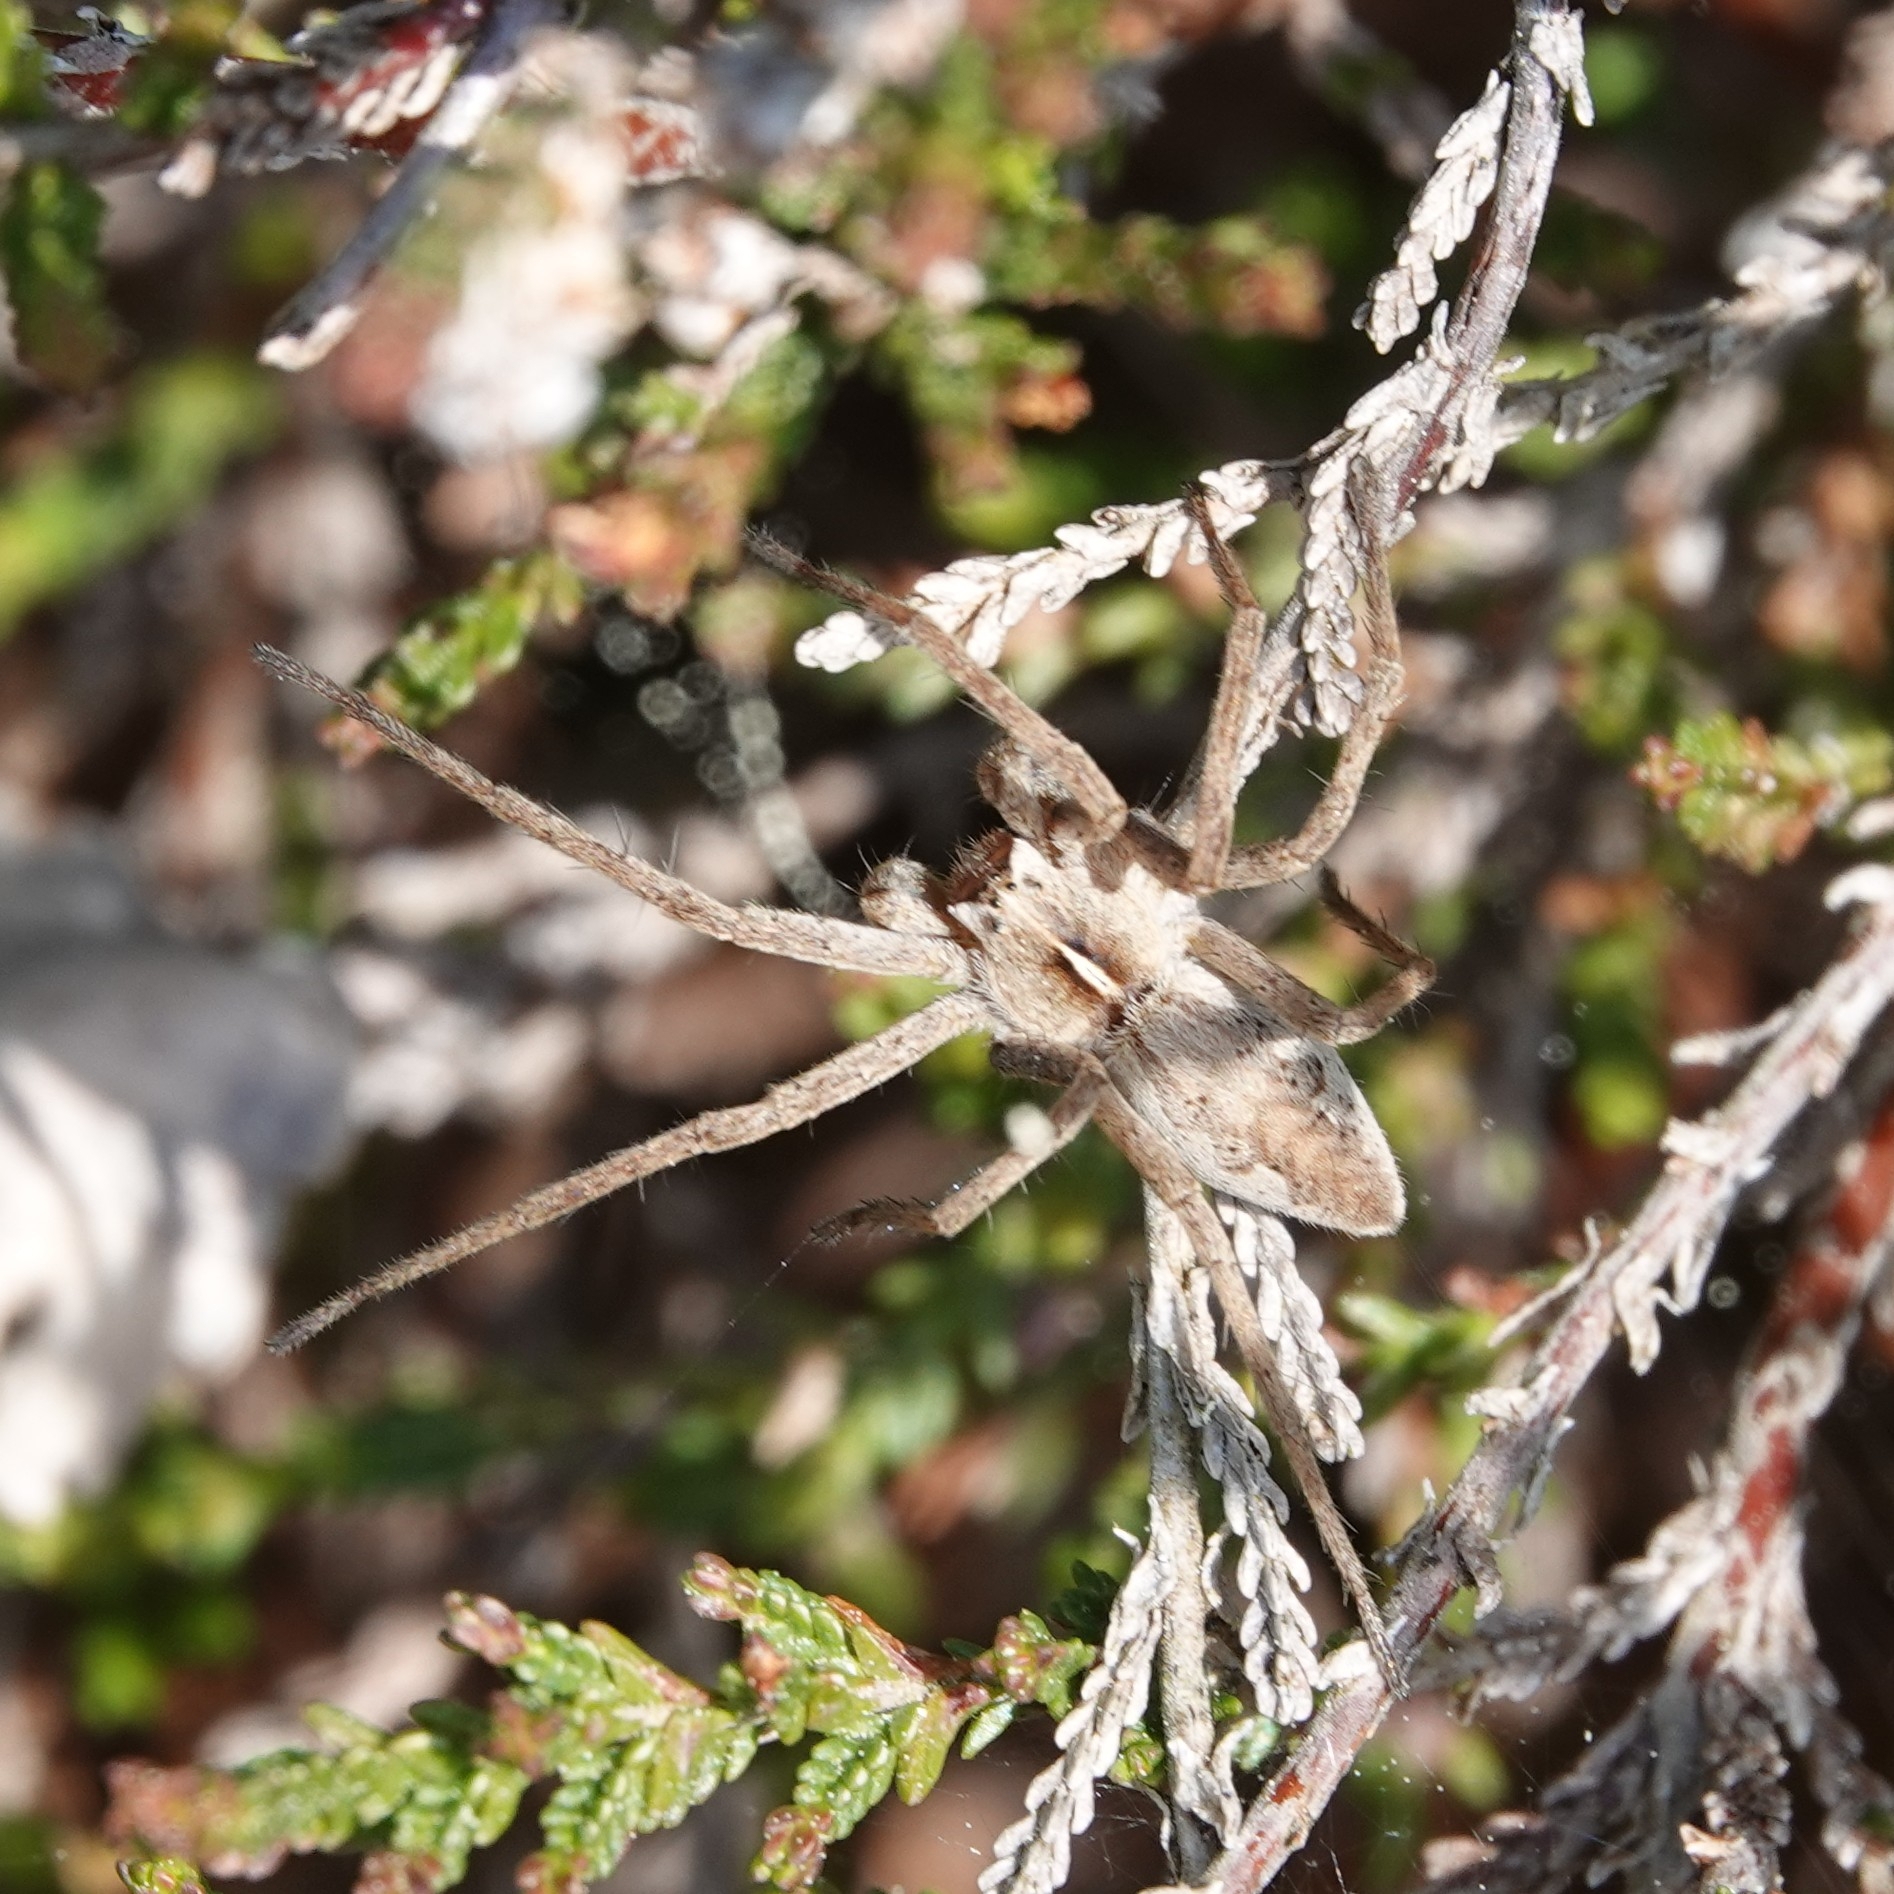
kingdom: Animalia
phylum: Arthropoda
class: Arachnida
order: Araneae
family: Pisauridae
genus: Pisaura
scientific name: Pisaura mirabilis
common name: Tent spider
